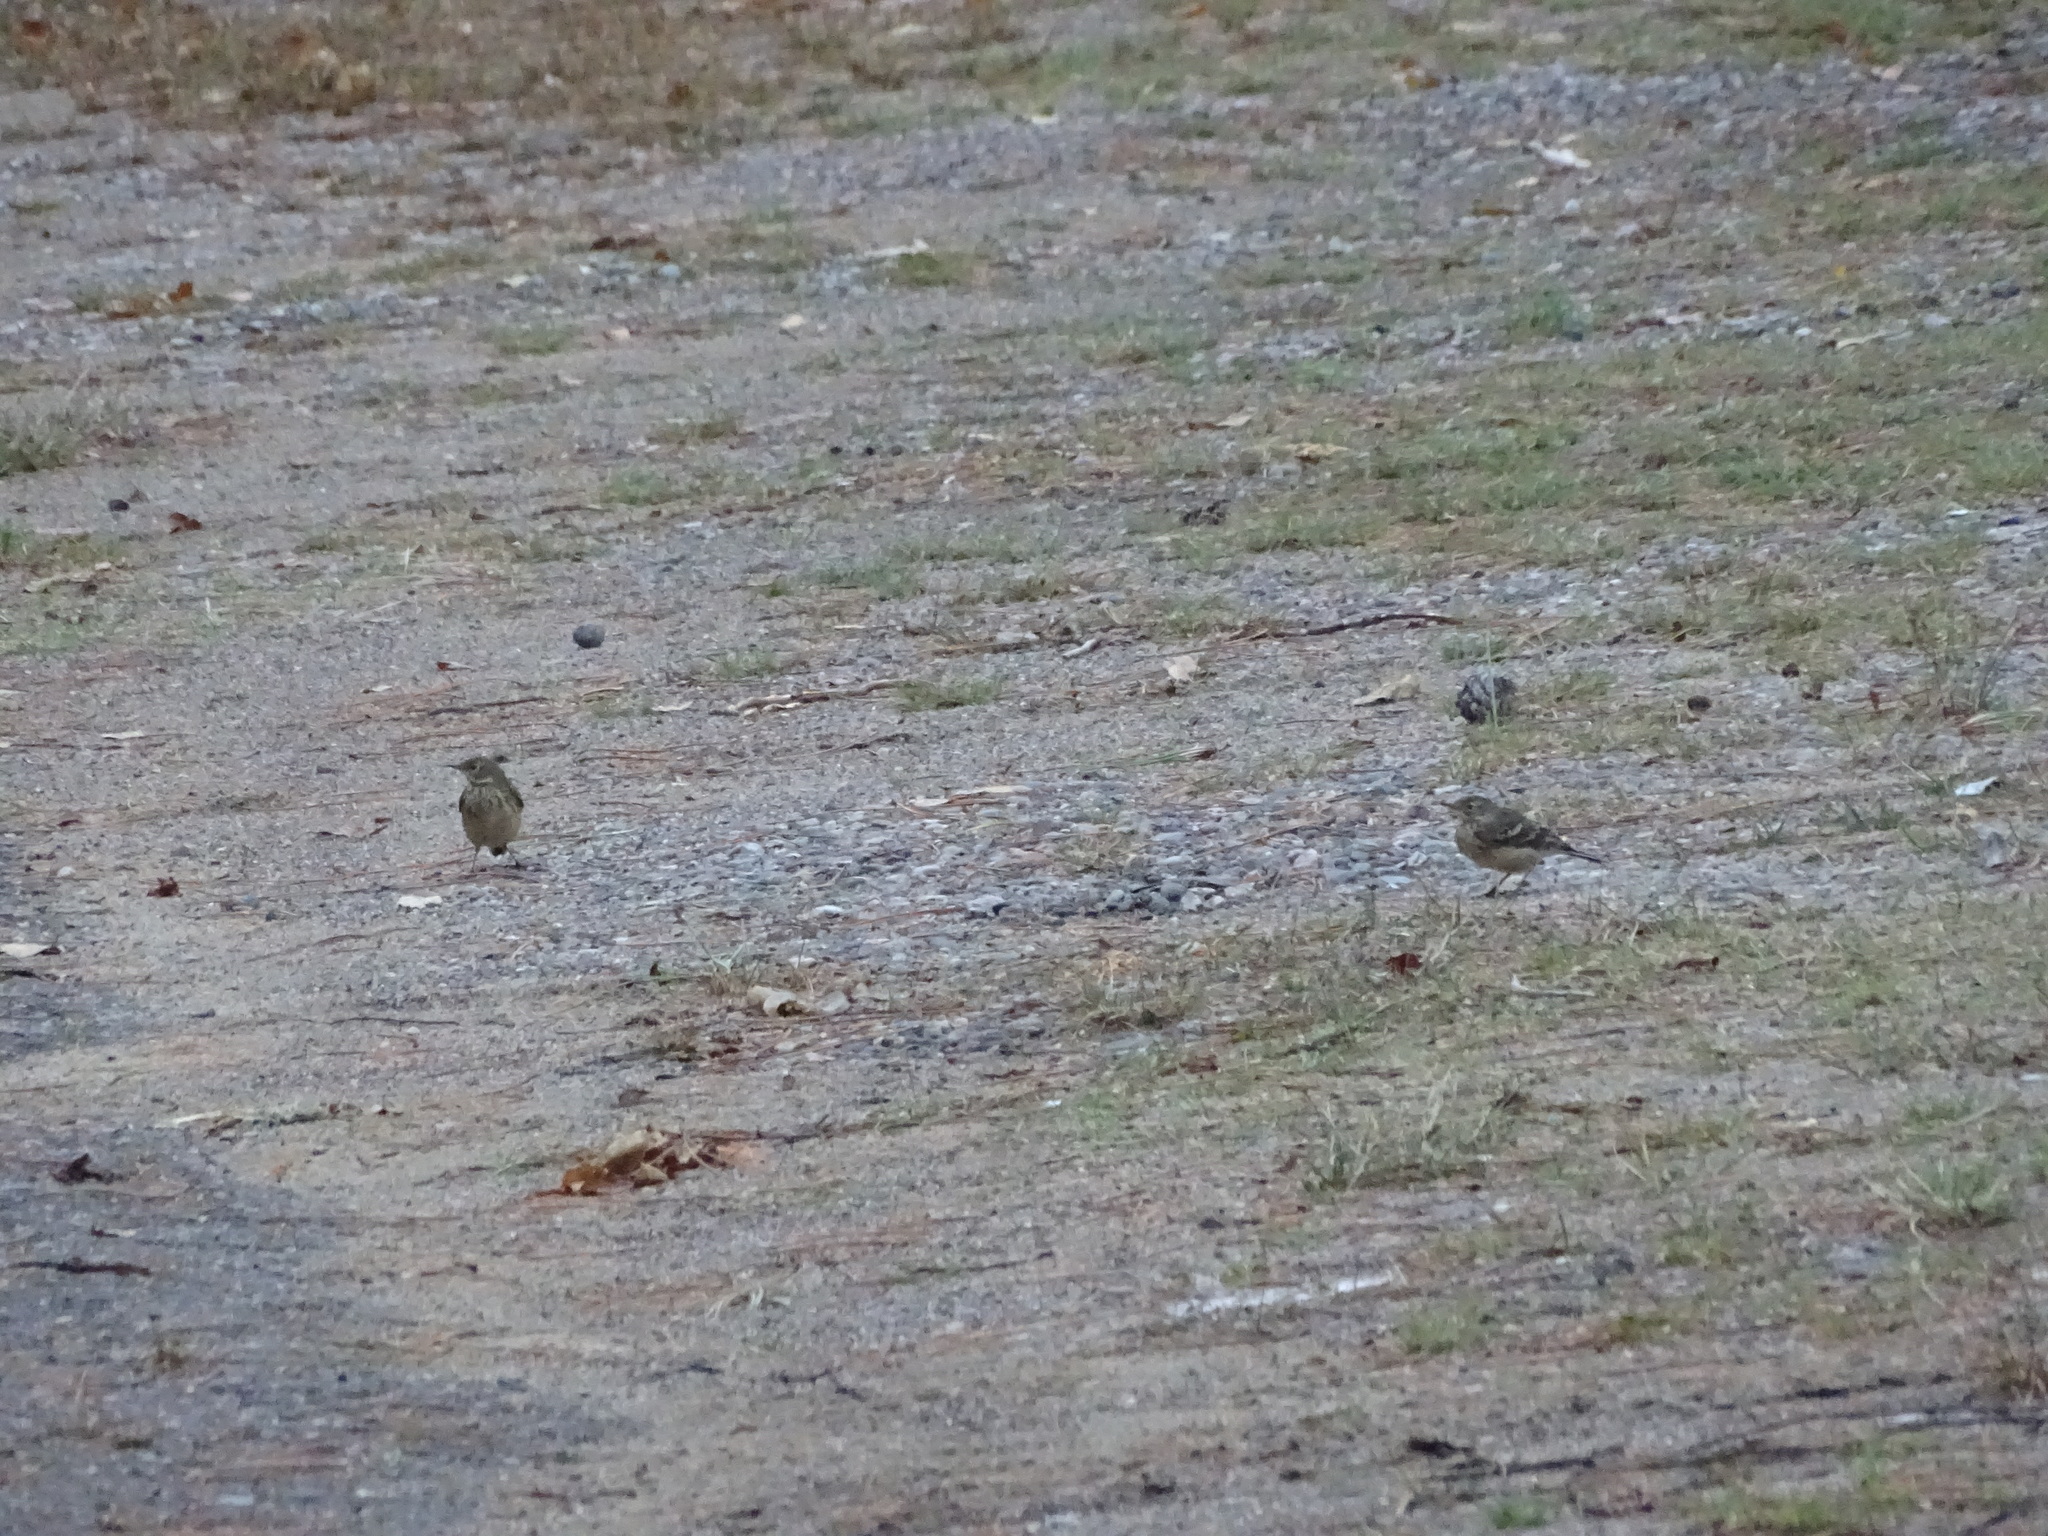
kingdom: Animalia
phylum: Chordata
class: Aves
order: Passeriformes
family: Motacillidae
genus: Anthus
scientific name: Anthus rubescens
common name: Buff-bellied pipit
